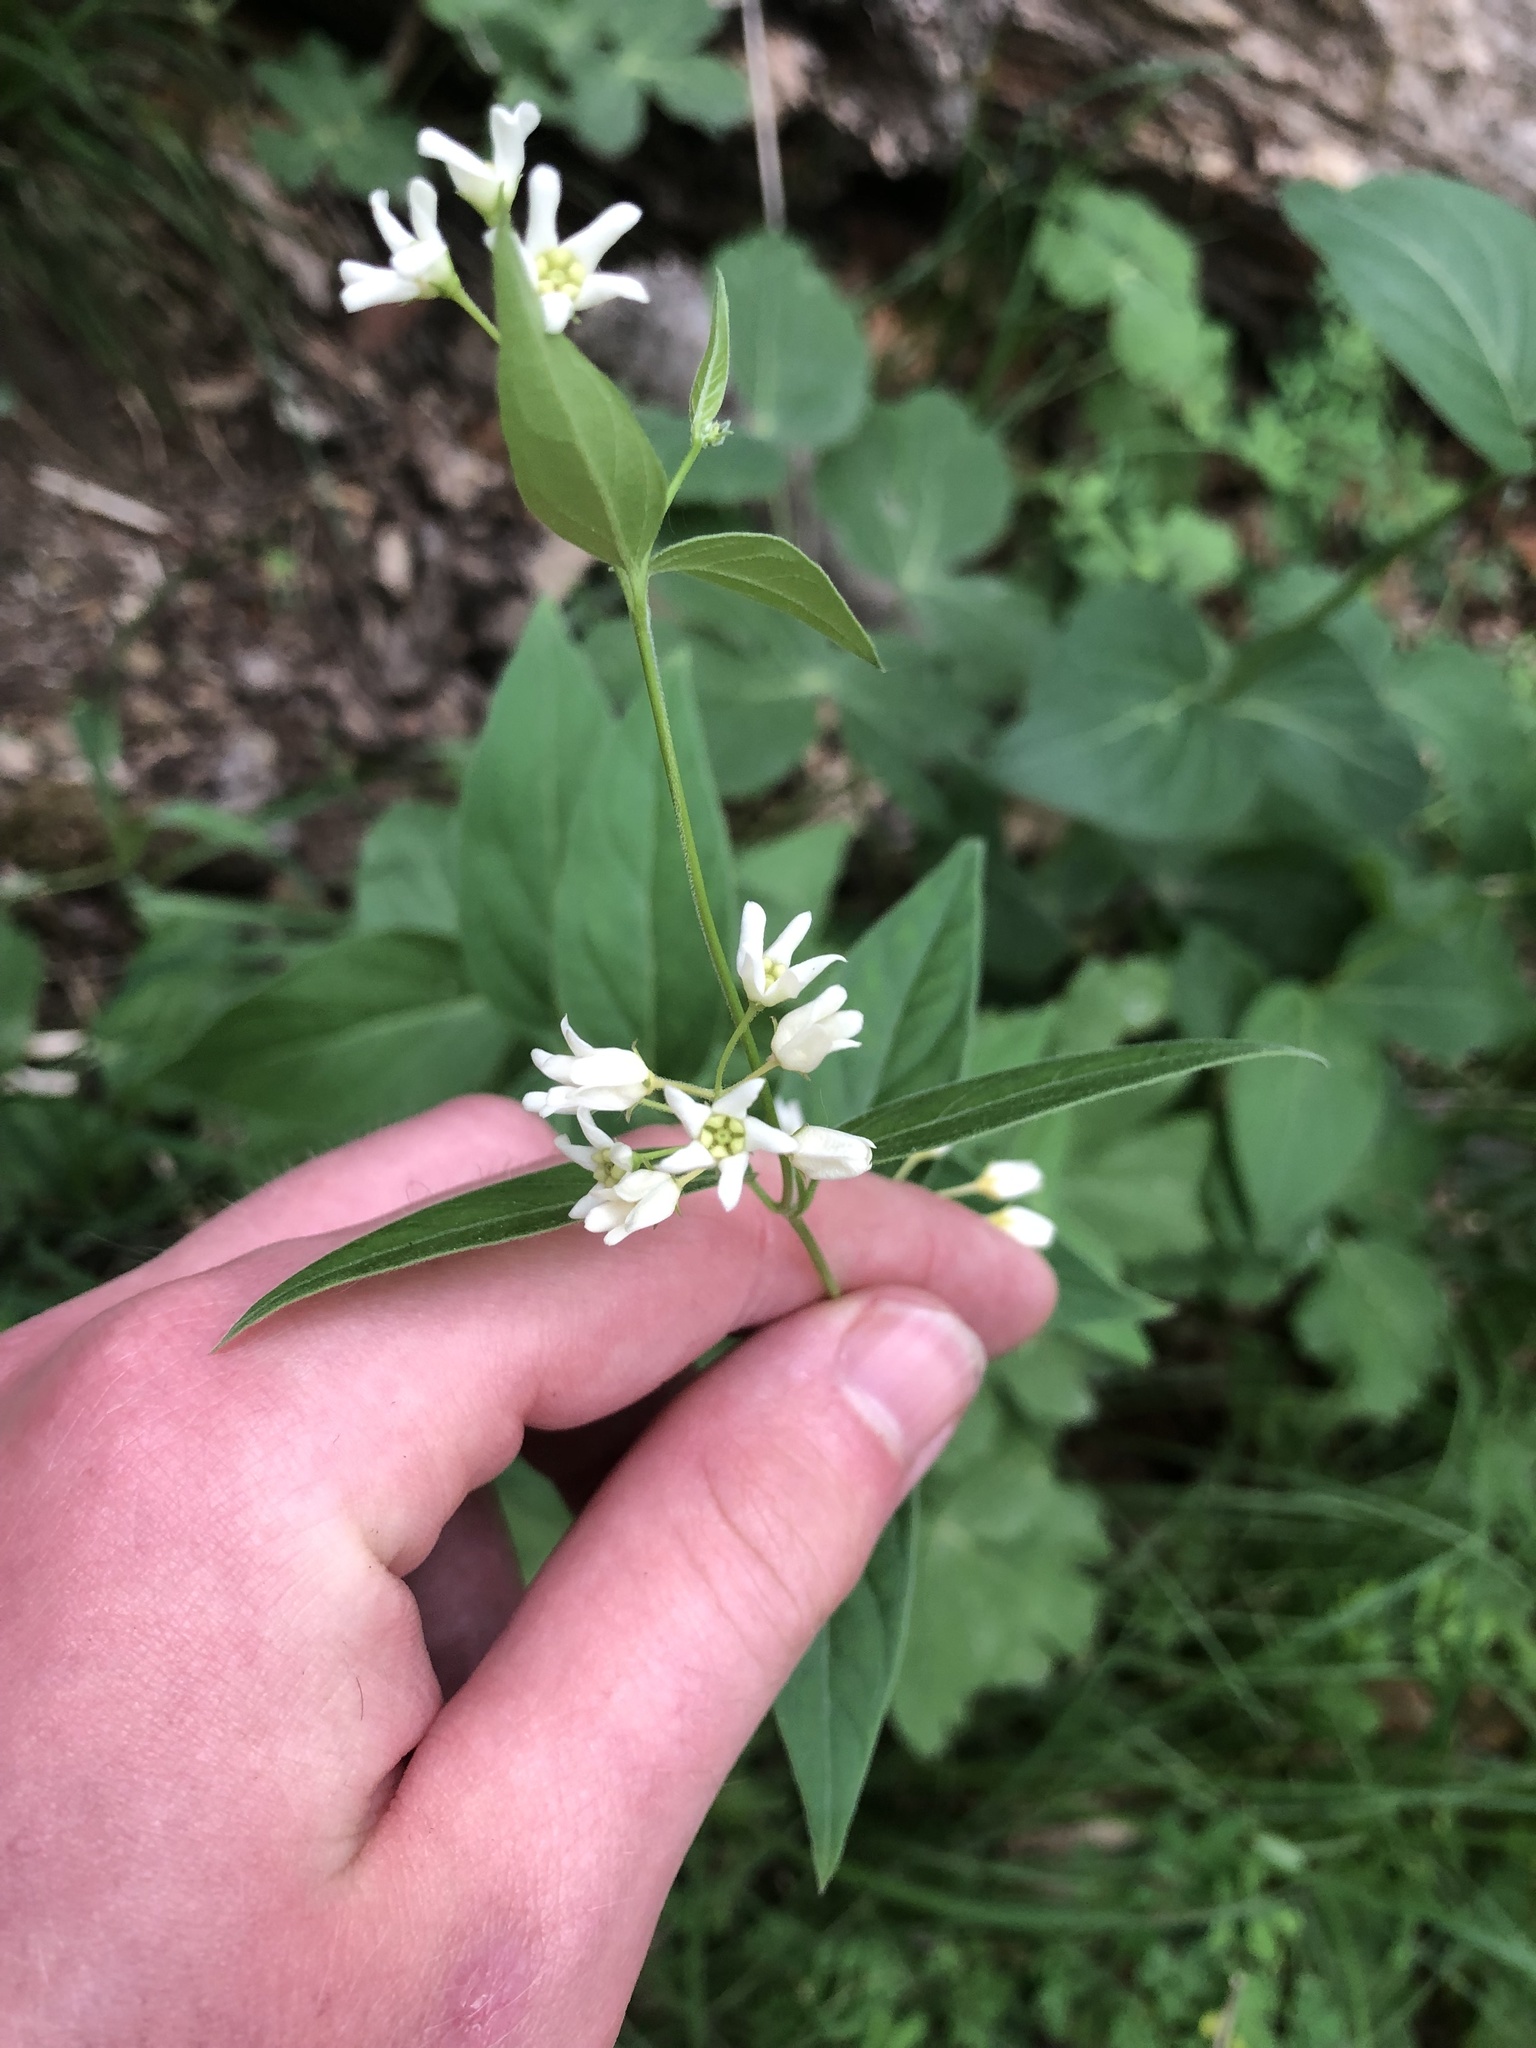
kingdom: Plantae
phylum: Tracheophyta
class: Magnoliopsida
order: Gentianales
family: Apocynaceae
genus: Vincetoxicum
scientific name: Vincetoxicum hirundinaria
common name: White swallowwort
